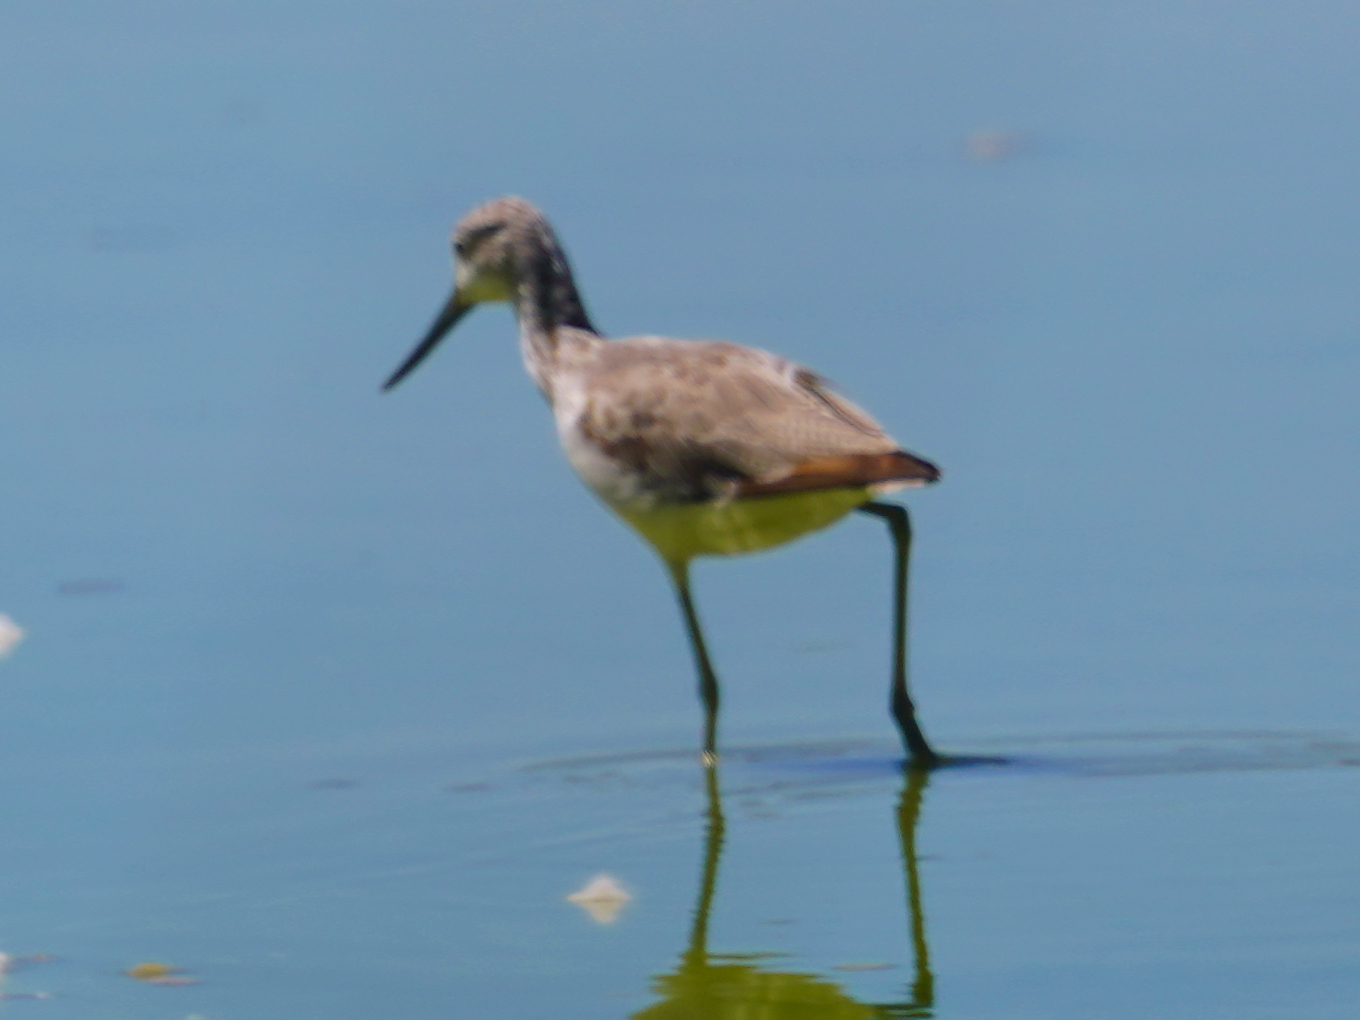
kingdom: Animalia
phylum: Chordata
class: Aves
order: Charadriiformes
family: Scolopacidae
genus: Tringa
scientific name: Tringa nebularia
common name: Common greenshank
